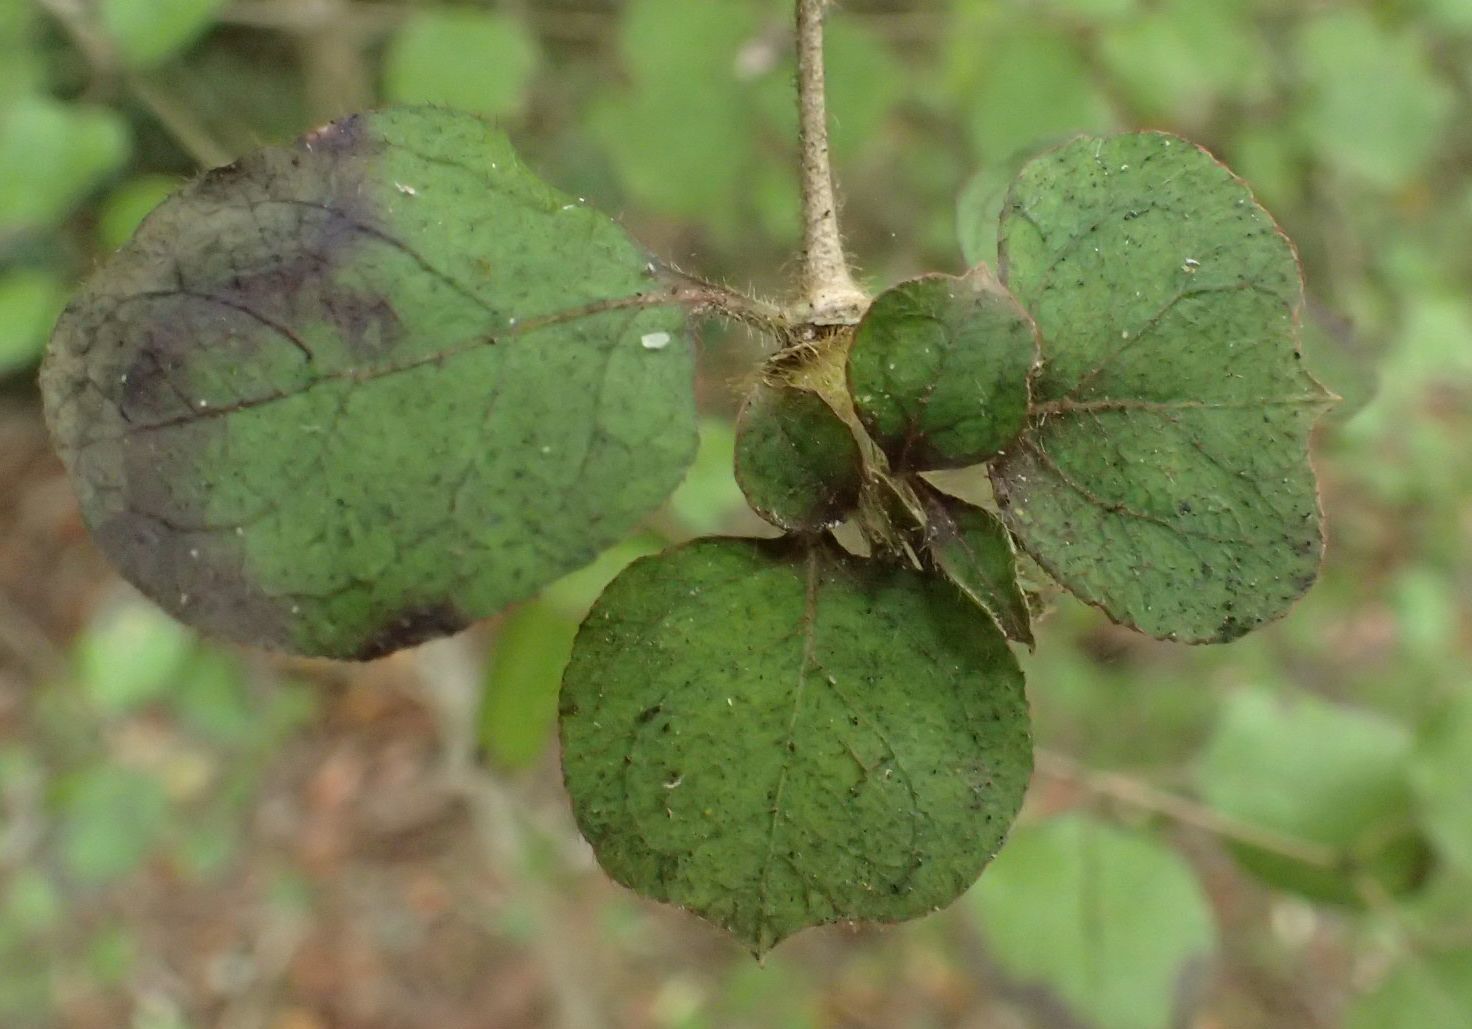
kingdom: Plantae
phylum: Tracheophyta
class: Magnoliopsida
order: Gentianales
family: Rubiaceae
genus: Coprosma
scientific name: Coprosma rotundifolia
